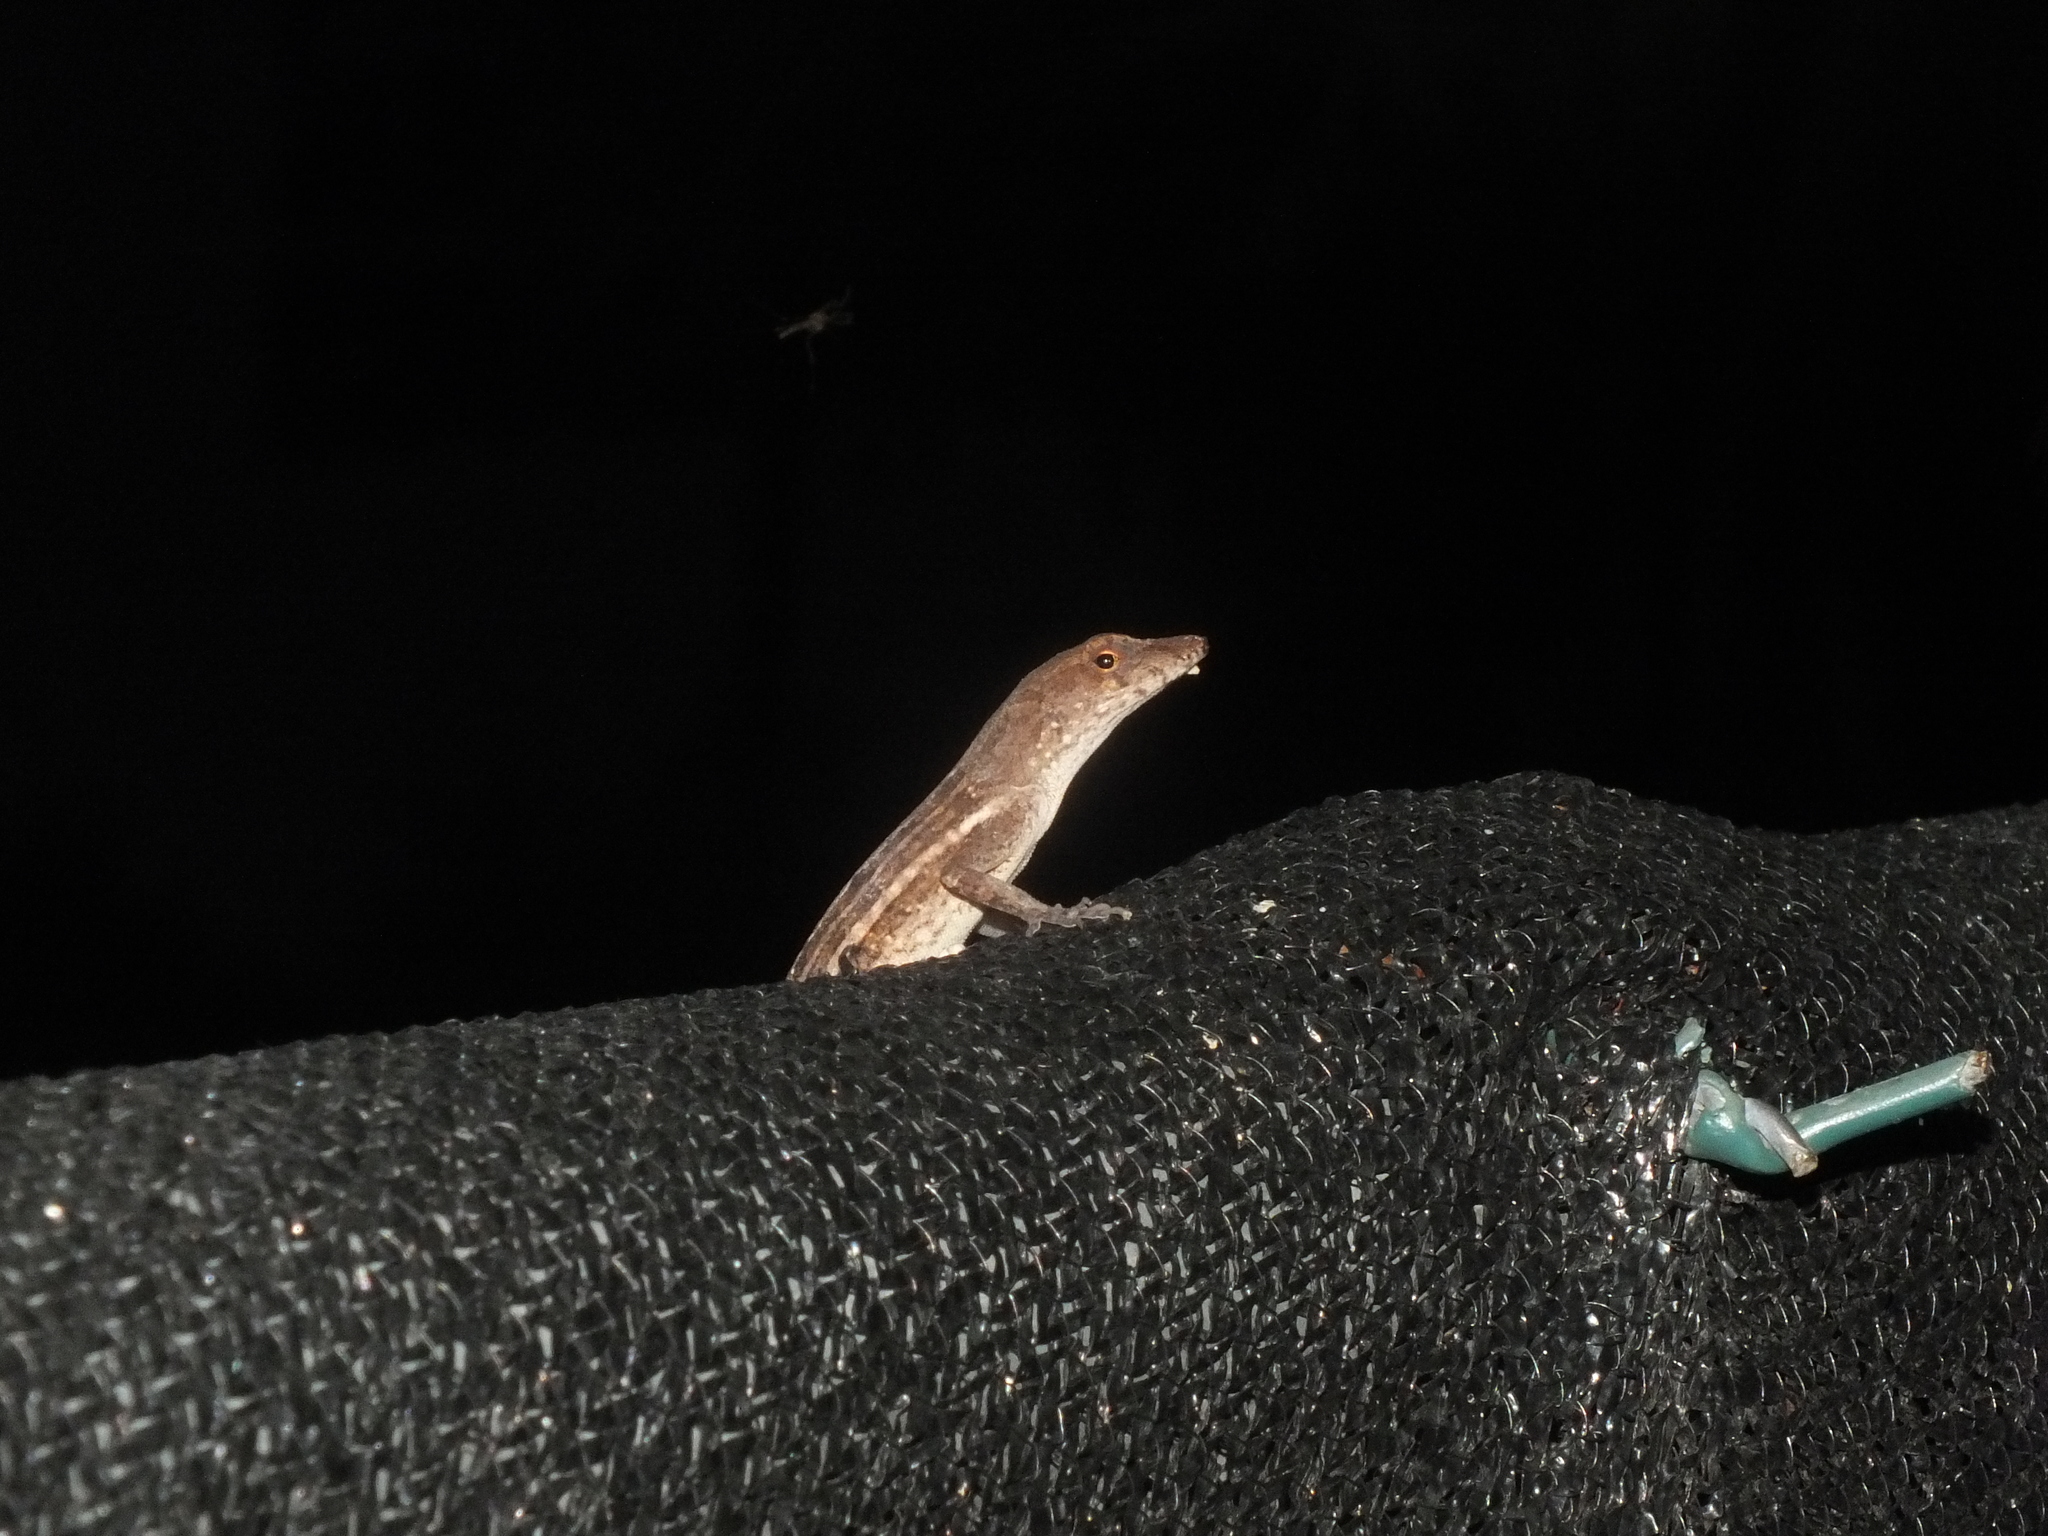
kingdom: Animalia
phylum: Chordata
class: Squamata
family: Dactyloidae
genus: Anolis
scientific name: Anolis lineatopus
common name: Stripefoot anole
